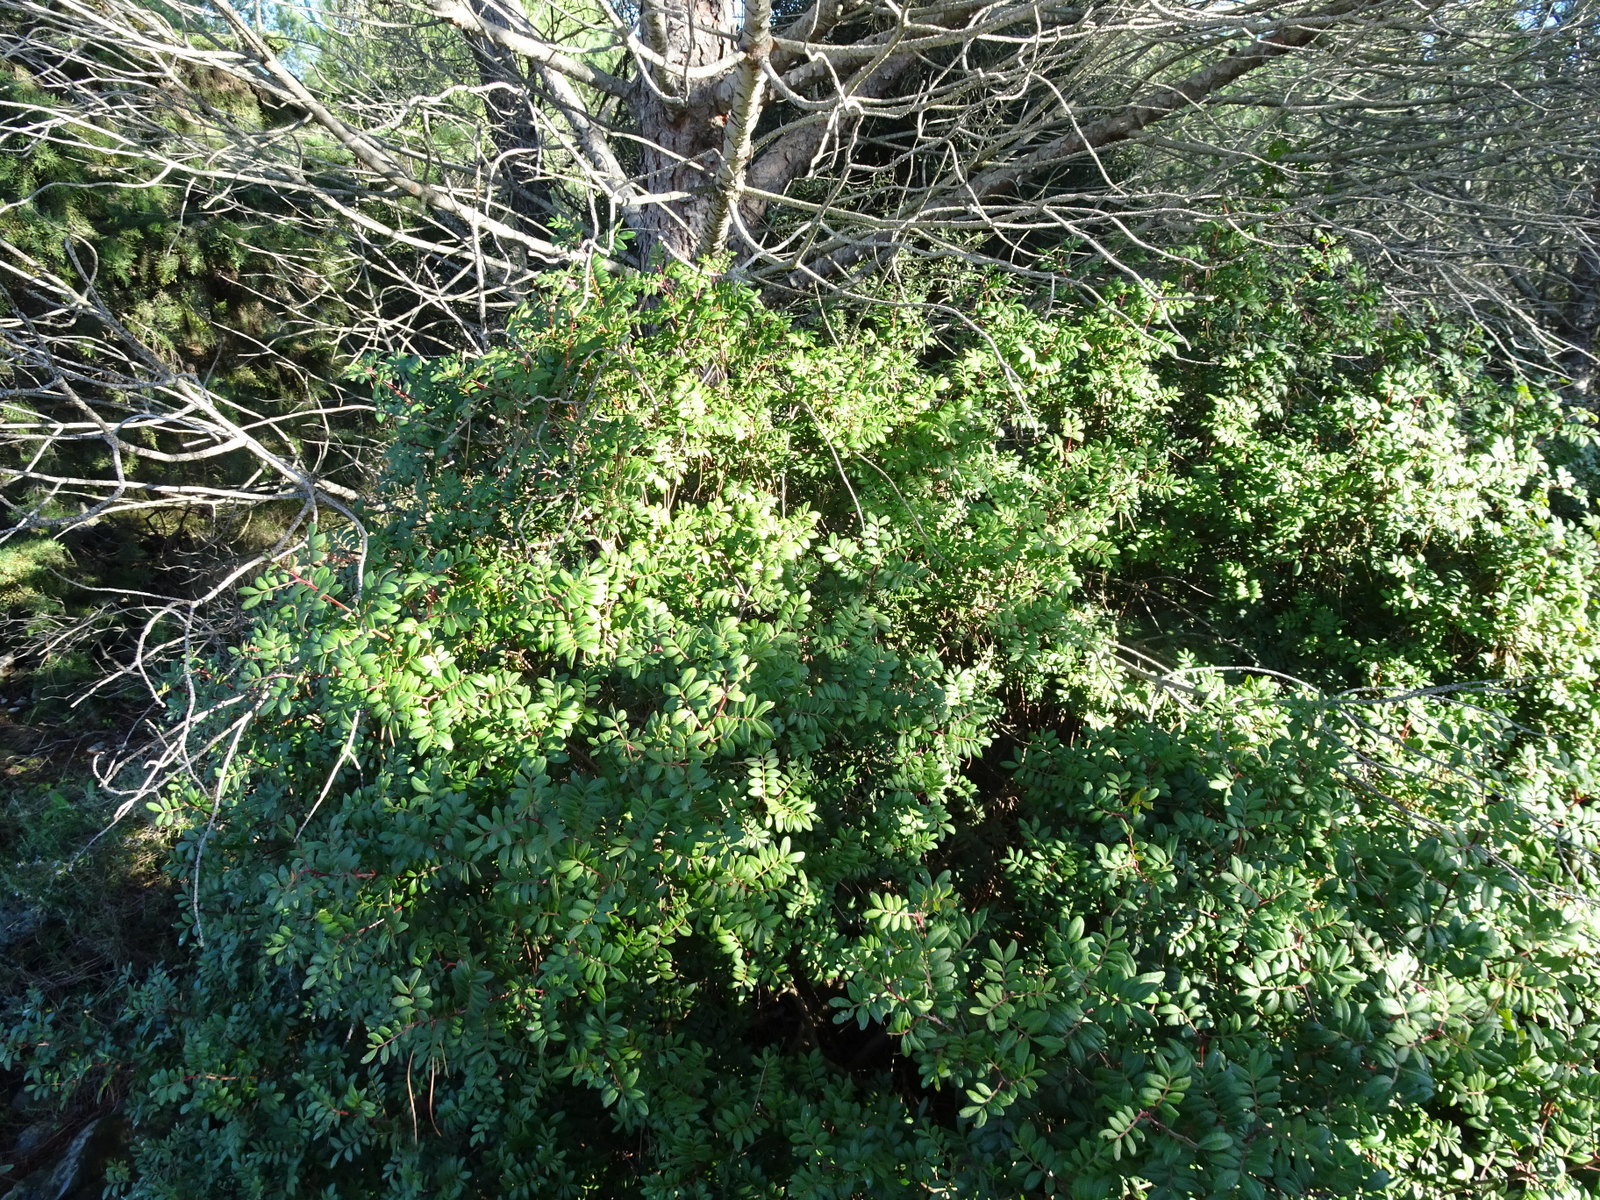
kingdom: Plantae
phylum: Tracheophyta
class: Magnoliopsida
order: Sapindales
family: Anacardiaceae
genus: Pistacia
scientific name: Pistacia lentiscus
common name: Lentisk
